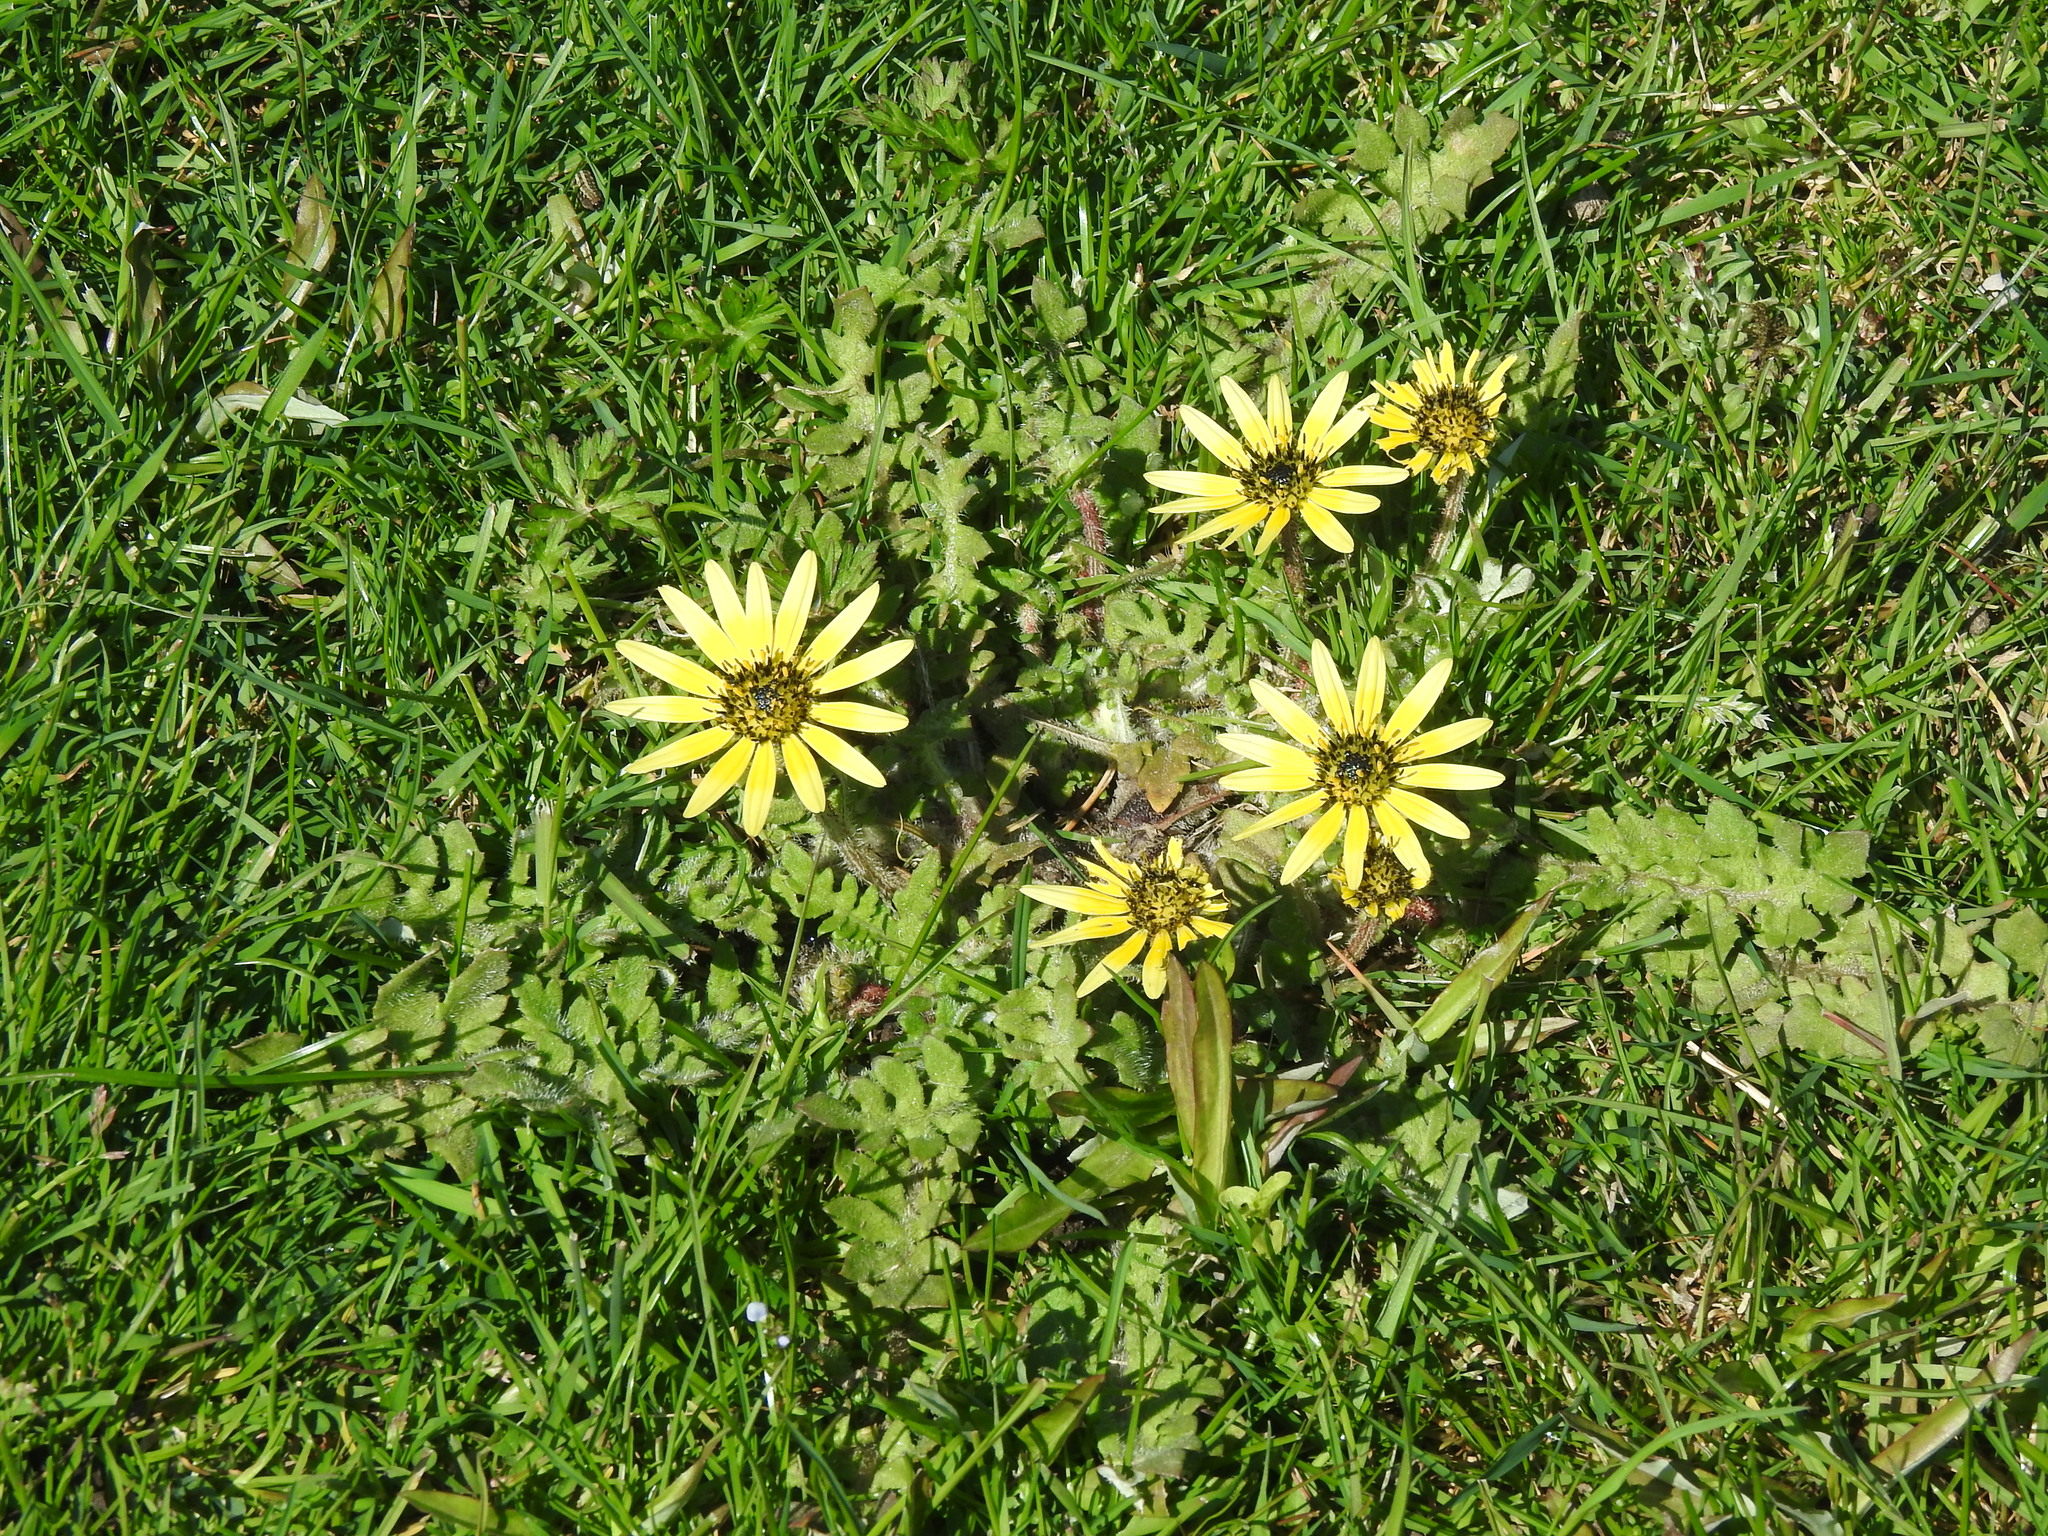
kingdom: Plantae
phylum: Tracheophyta
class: Magnoliopsida
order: Asterales
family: Asteraceae
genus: Arctotheca
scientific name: Arctotheca calendula
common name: Capeweed
